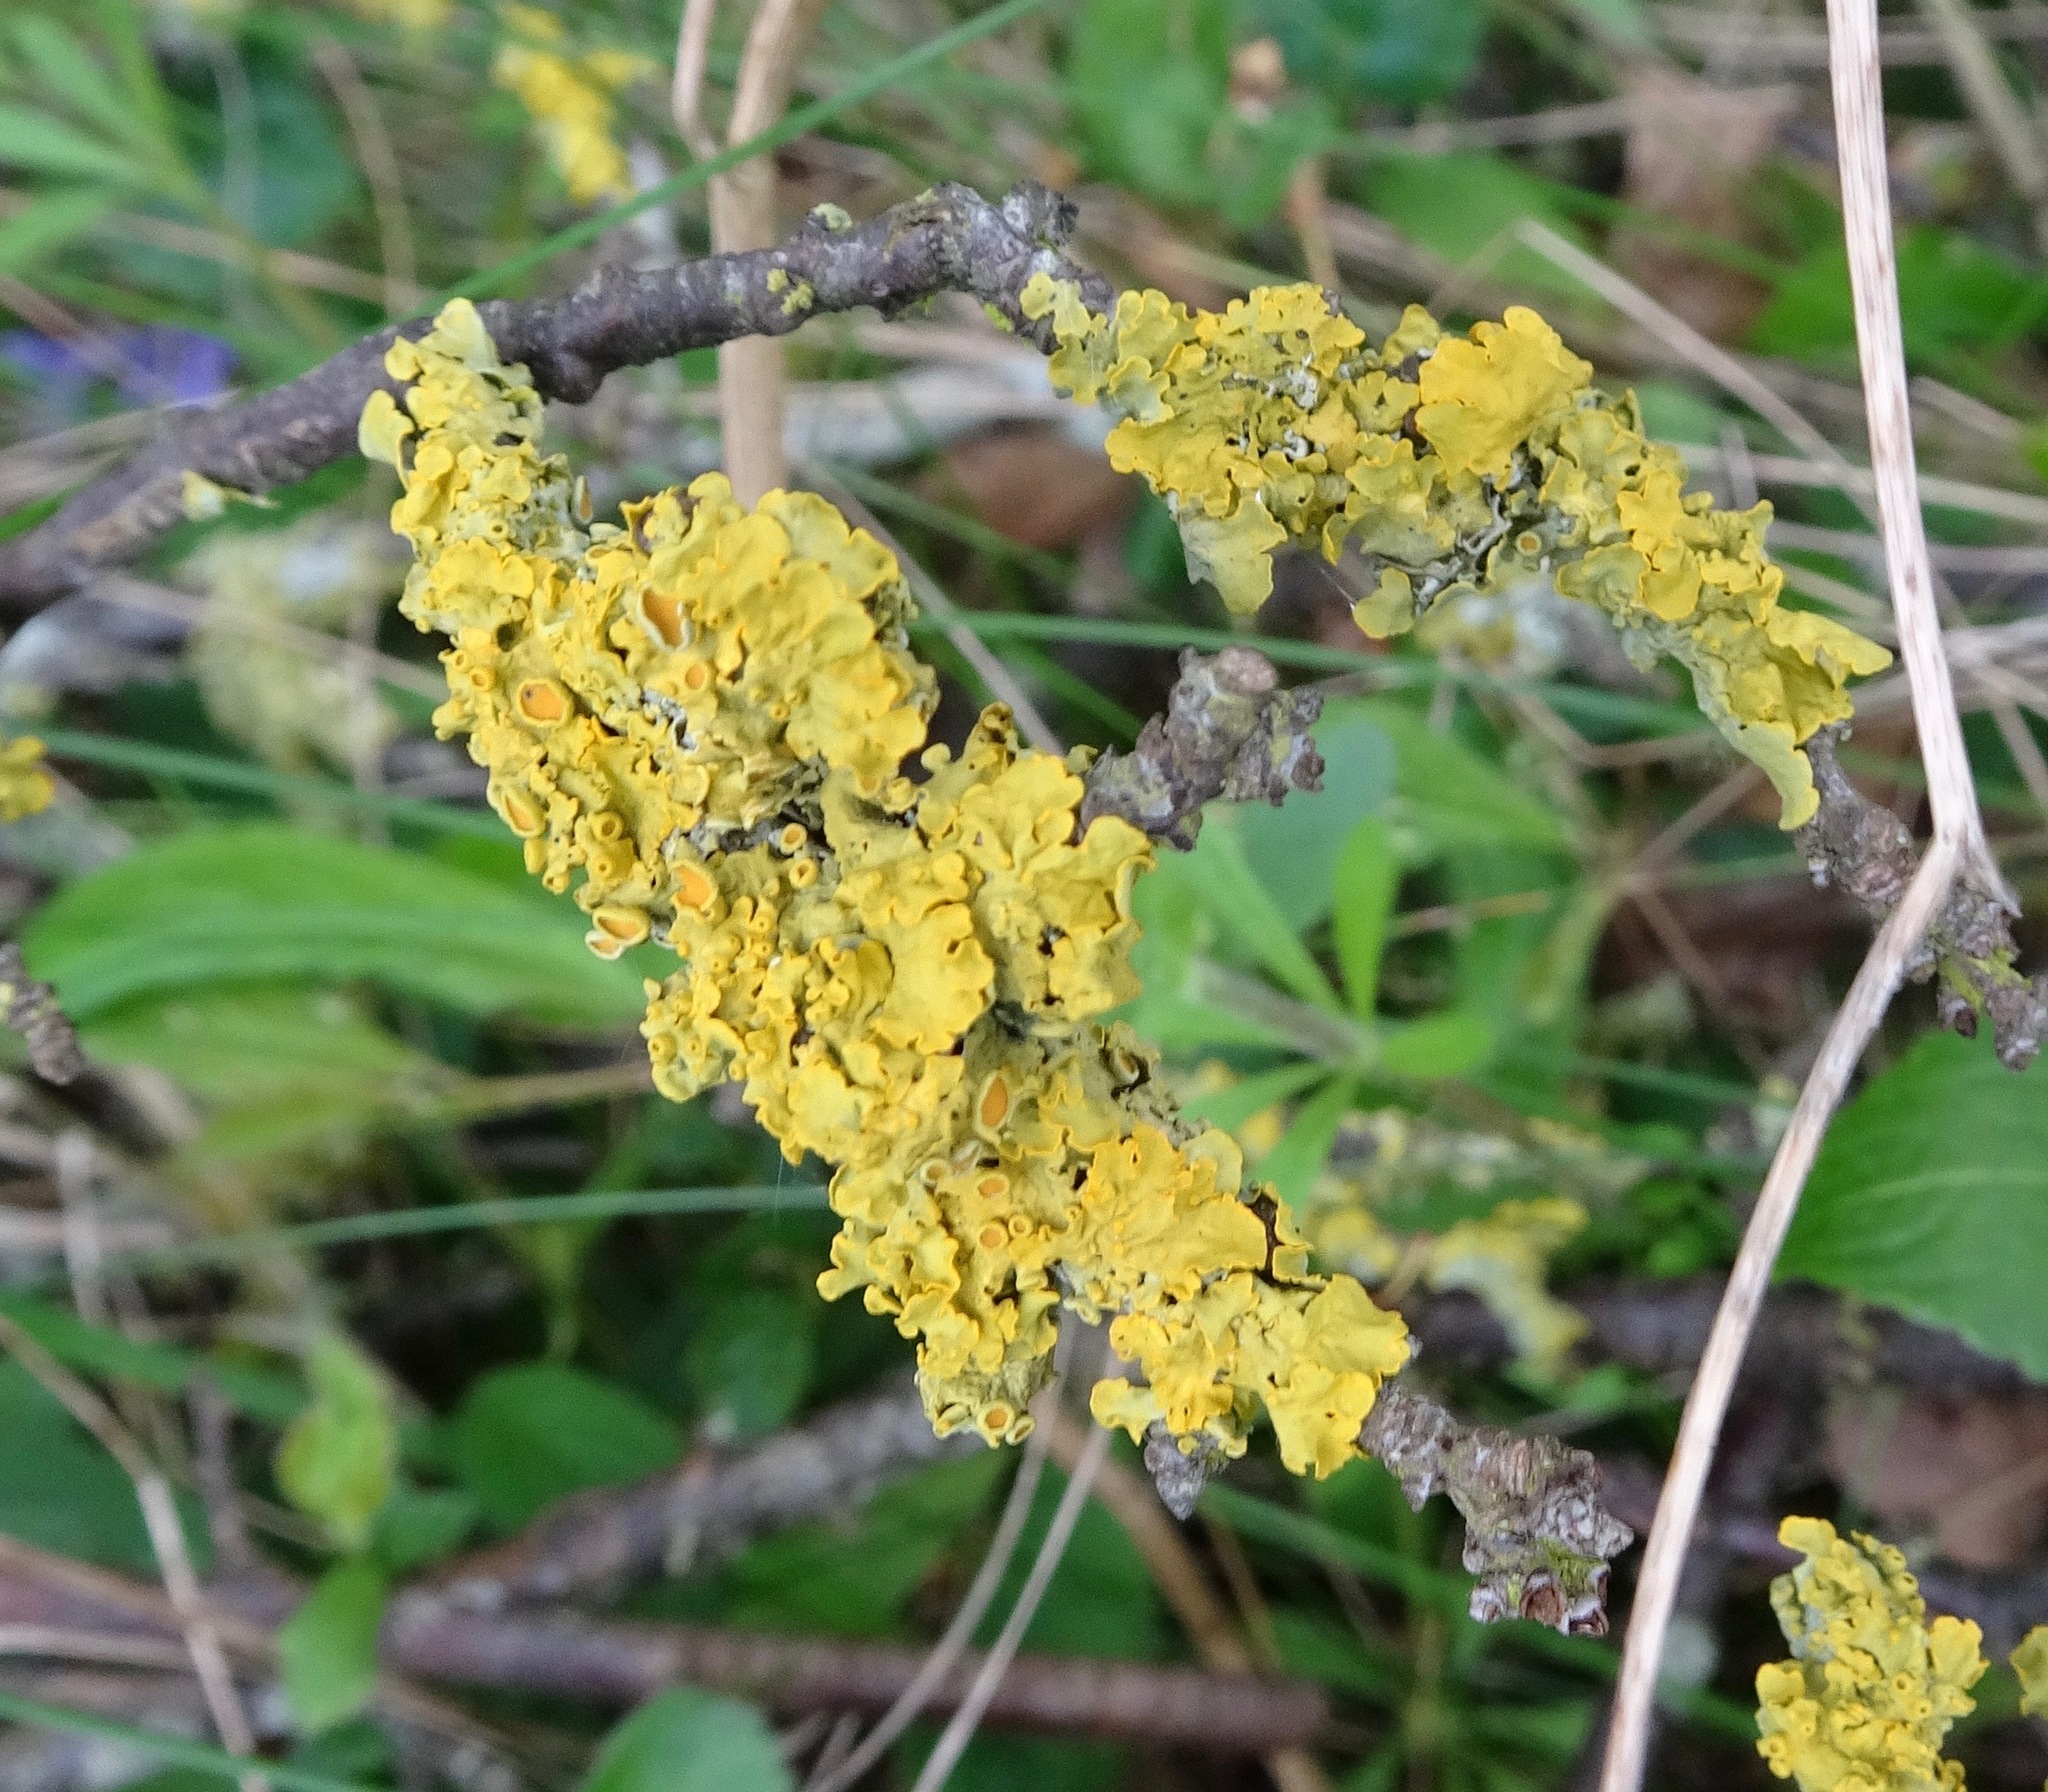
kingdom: Fungi
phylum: Ascomycota
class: Lecanoromycetes
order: Teloschistales
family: Teloschistaceae
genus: Xanthoria
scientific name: Xanthoria parietina
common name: Common orange lichen
